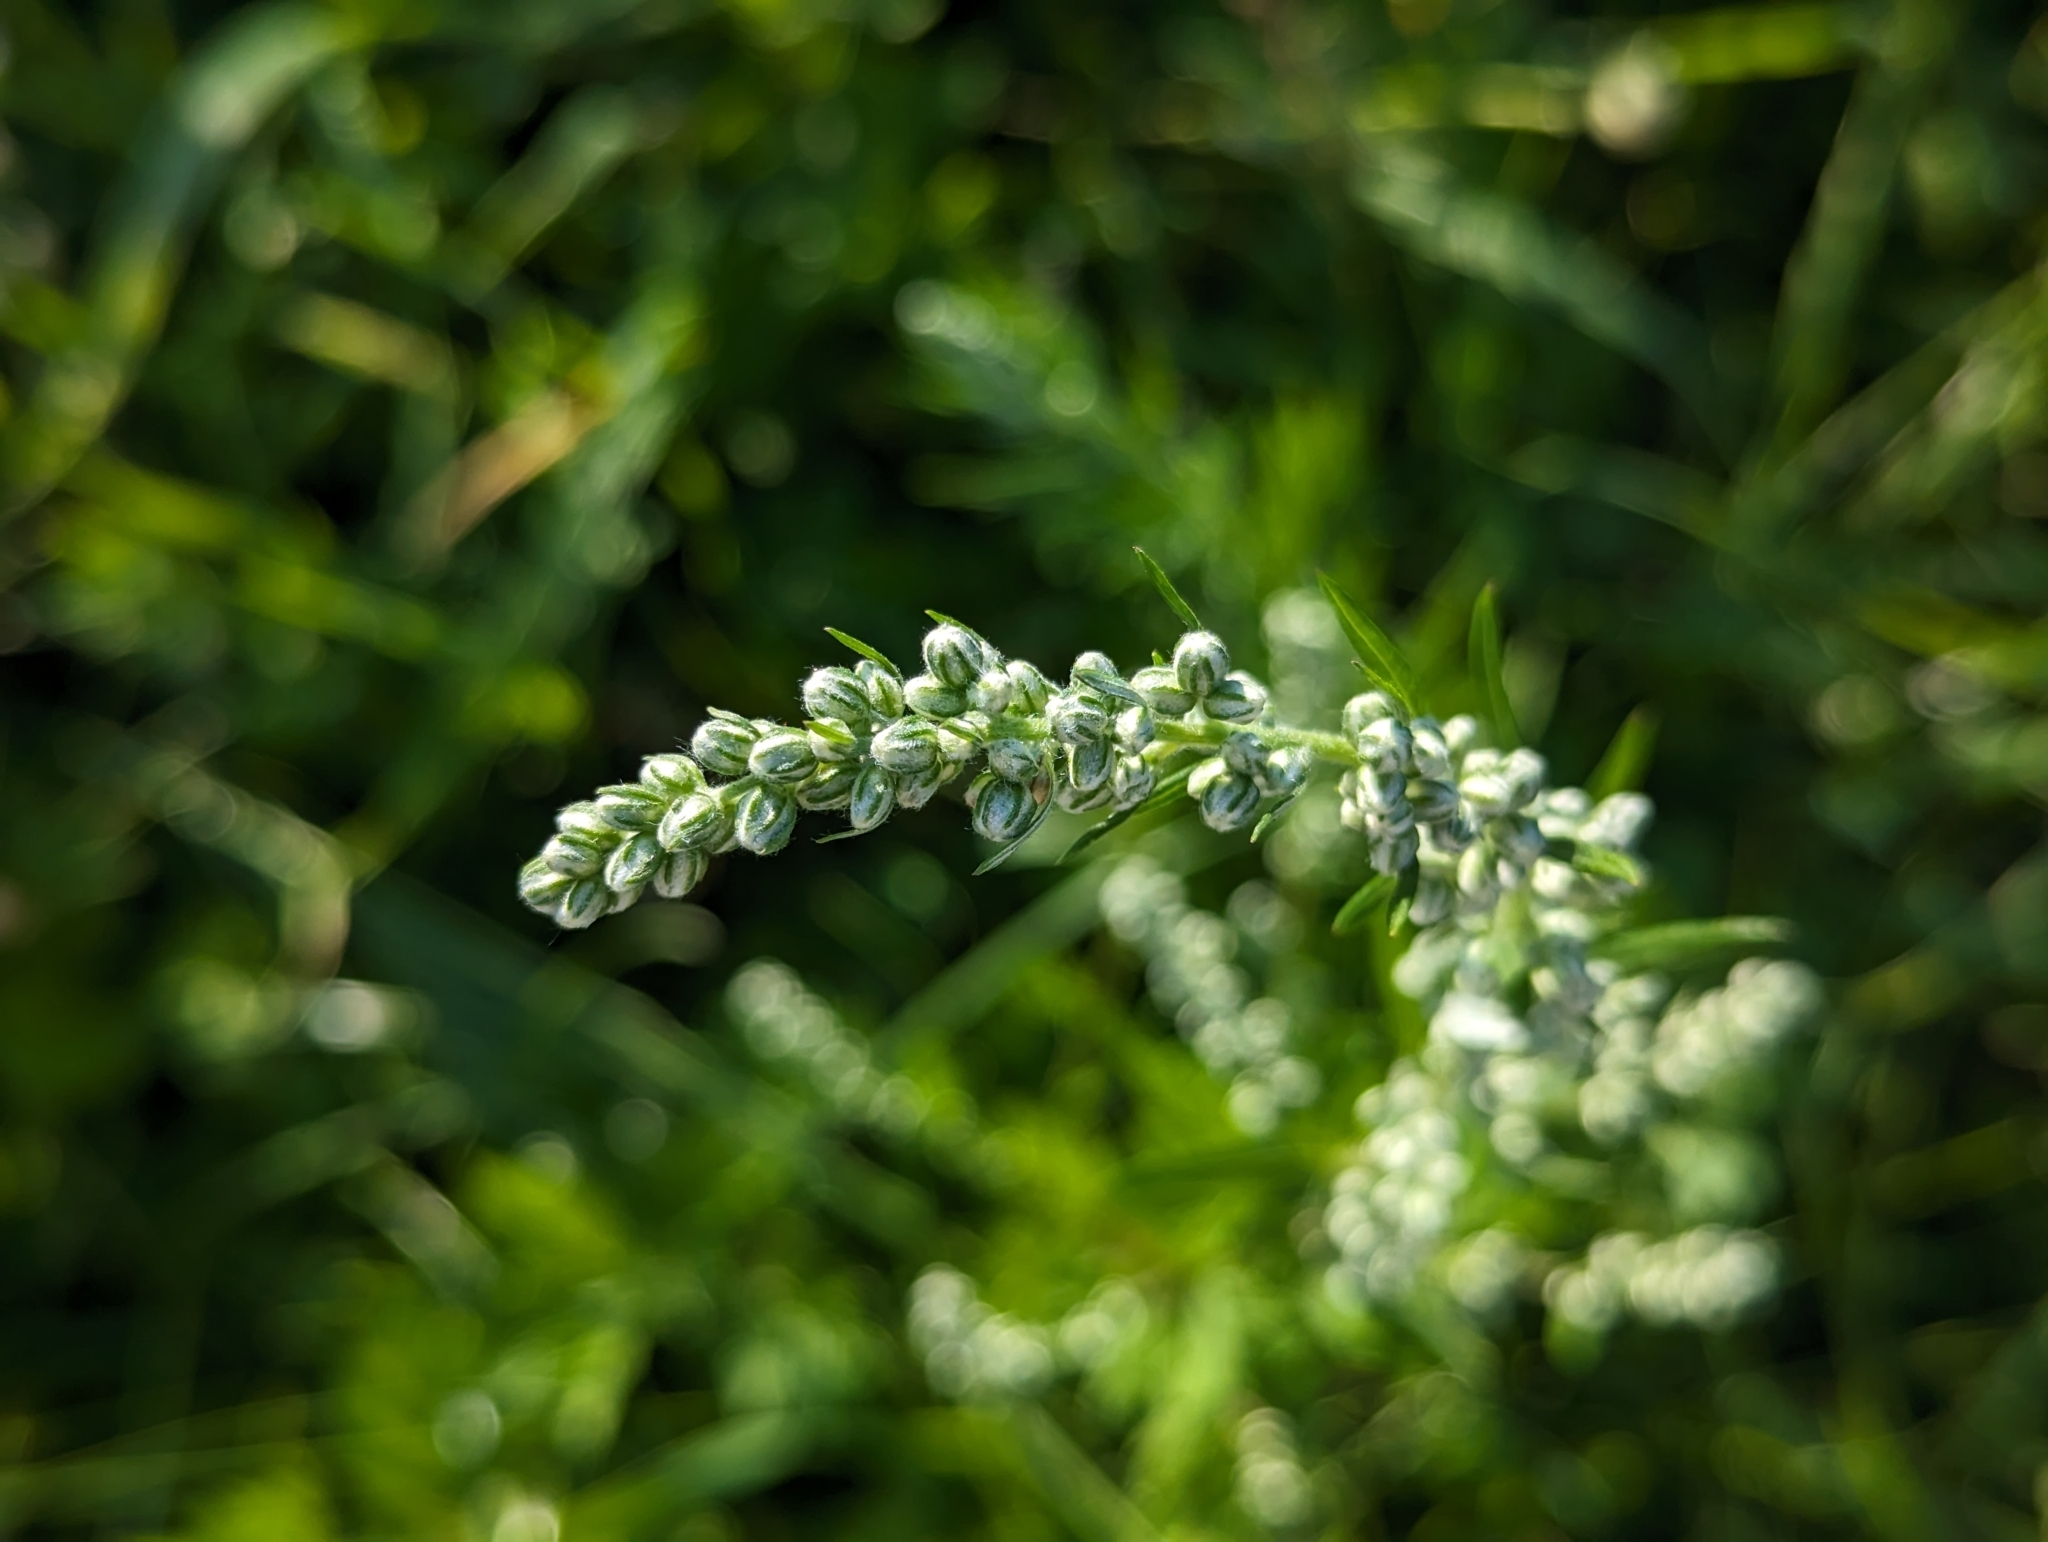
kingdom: Plantae
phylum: Tracheophyta
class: Magnoliopsida
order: Asterales
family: Asteraceae
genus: Artemisia
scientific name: Artemisia vulgaris
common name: Mugwort
